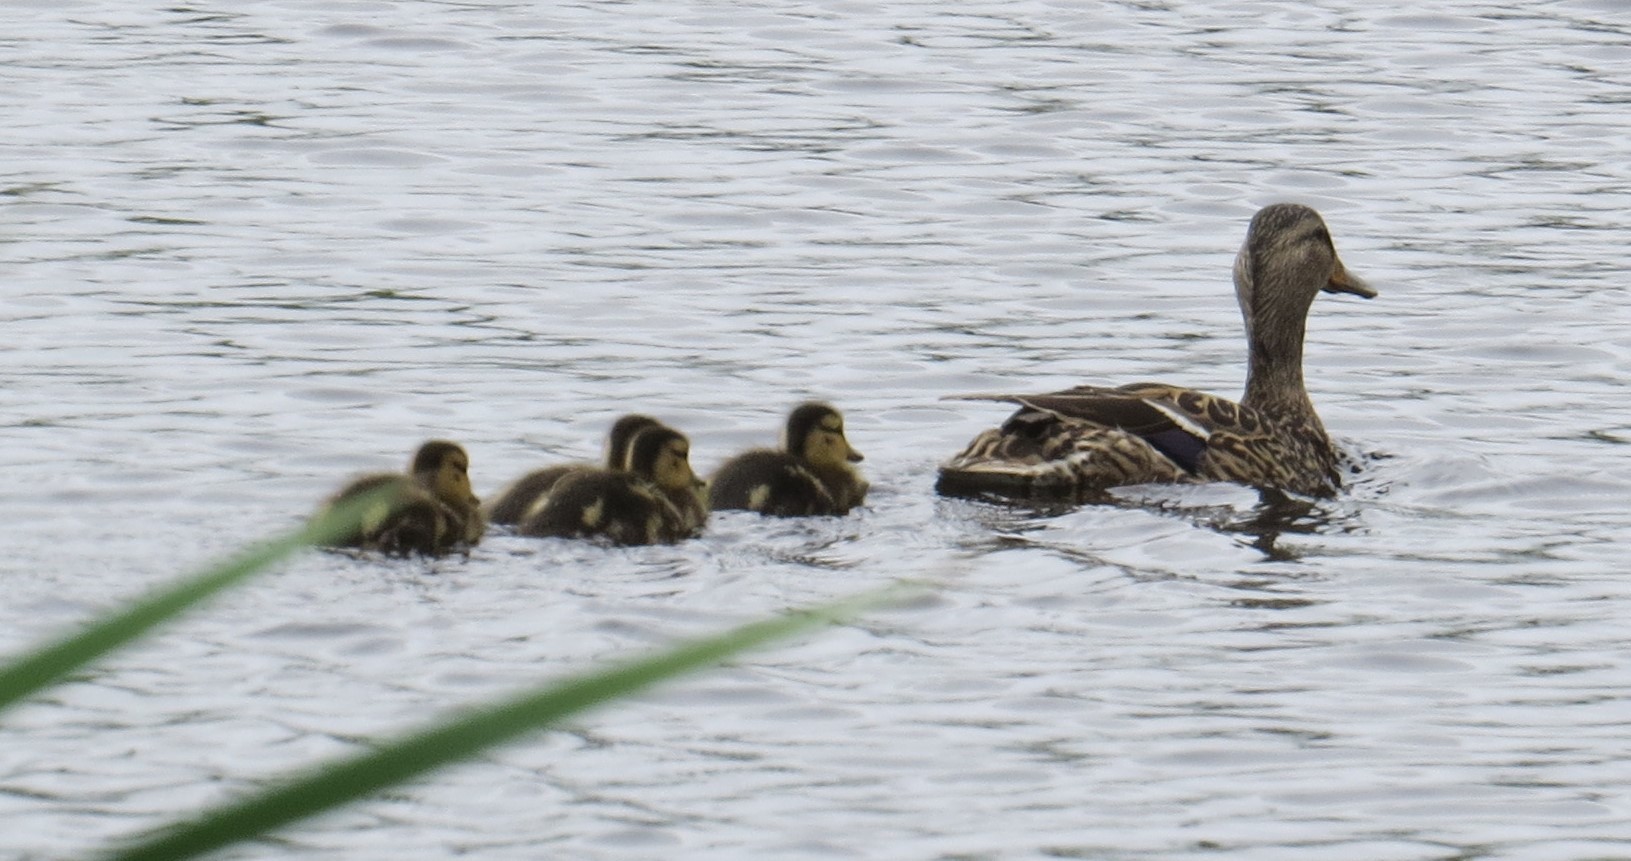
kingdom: Animalia
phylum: Chordata
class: Aves
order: Anseriformes
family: Anatidae
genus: Anas
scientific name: Anas platyrhynchos
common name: Mallard
